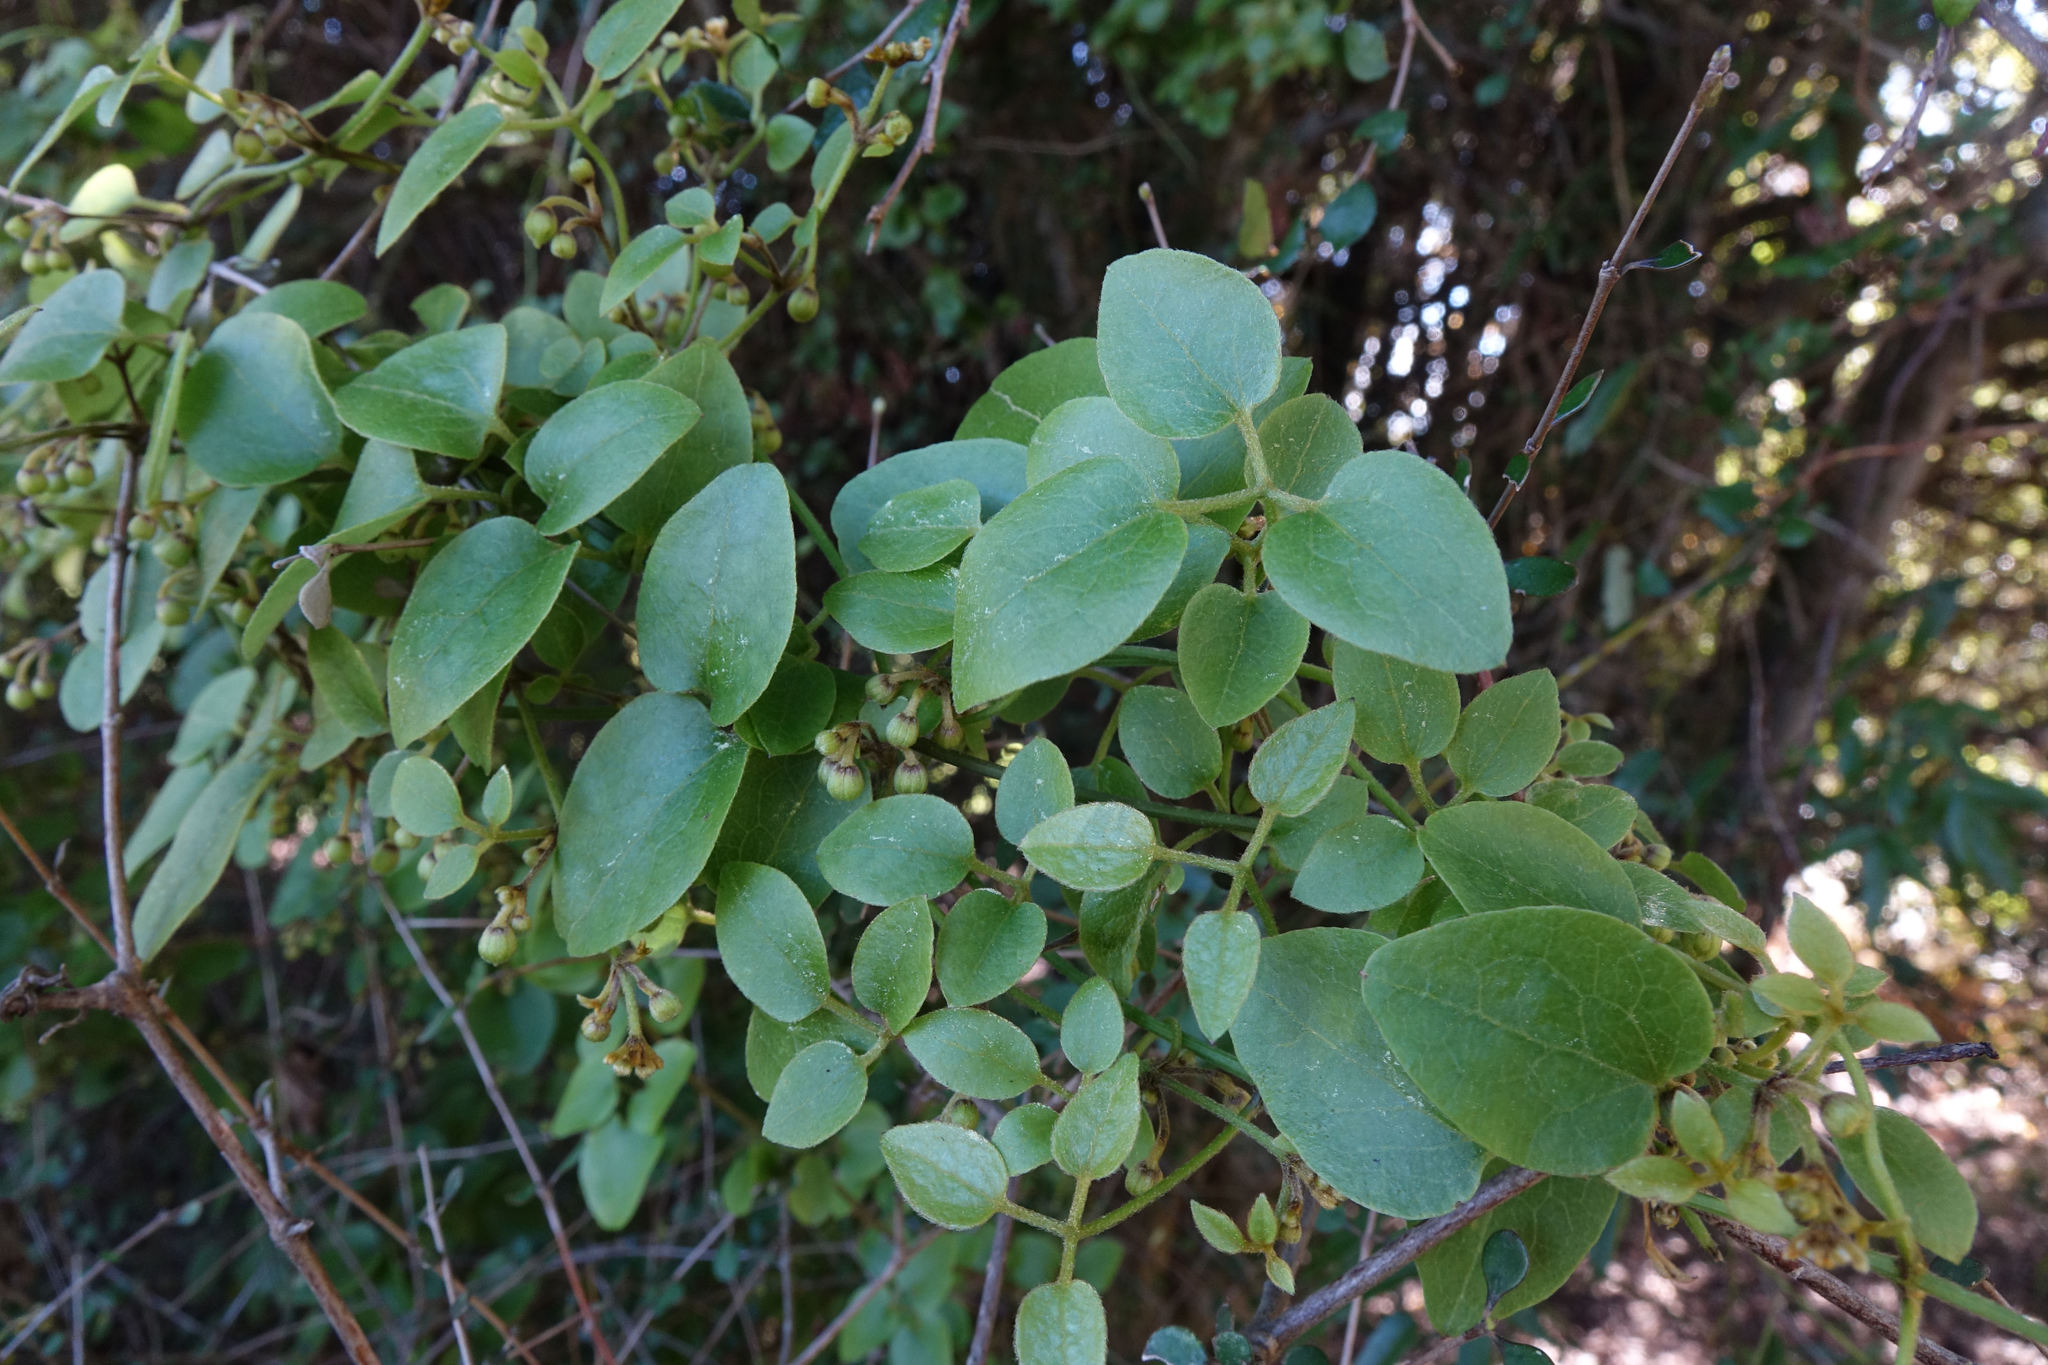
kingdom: Plantae
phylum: Tracheophyta
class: Magnoliopsida
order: Ranunculales
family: Ranunculaceae
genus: Clematis
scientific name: Clematis foetida
